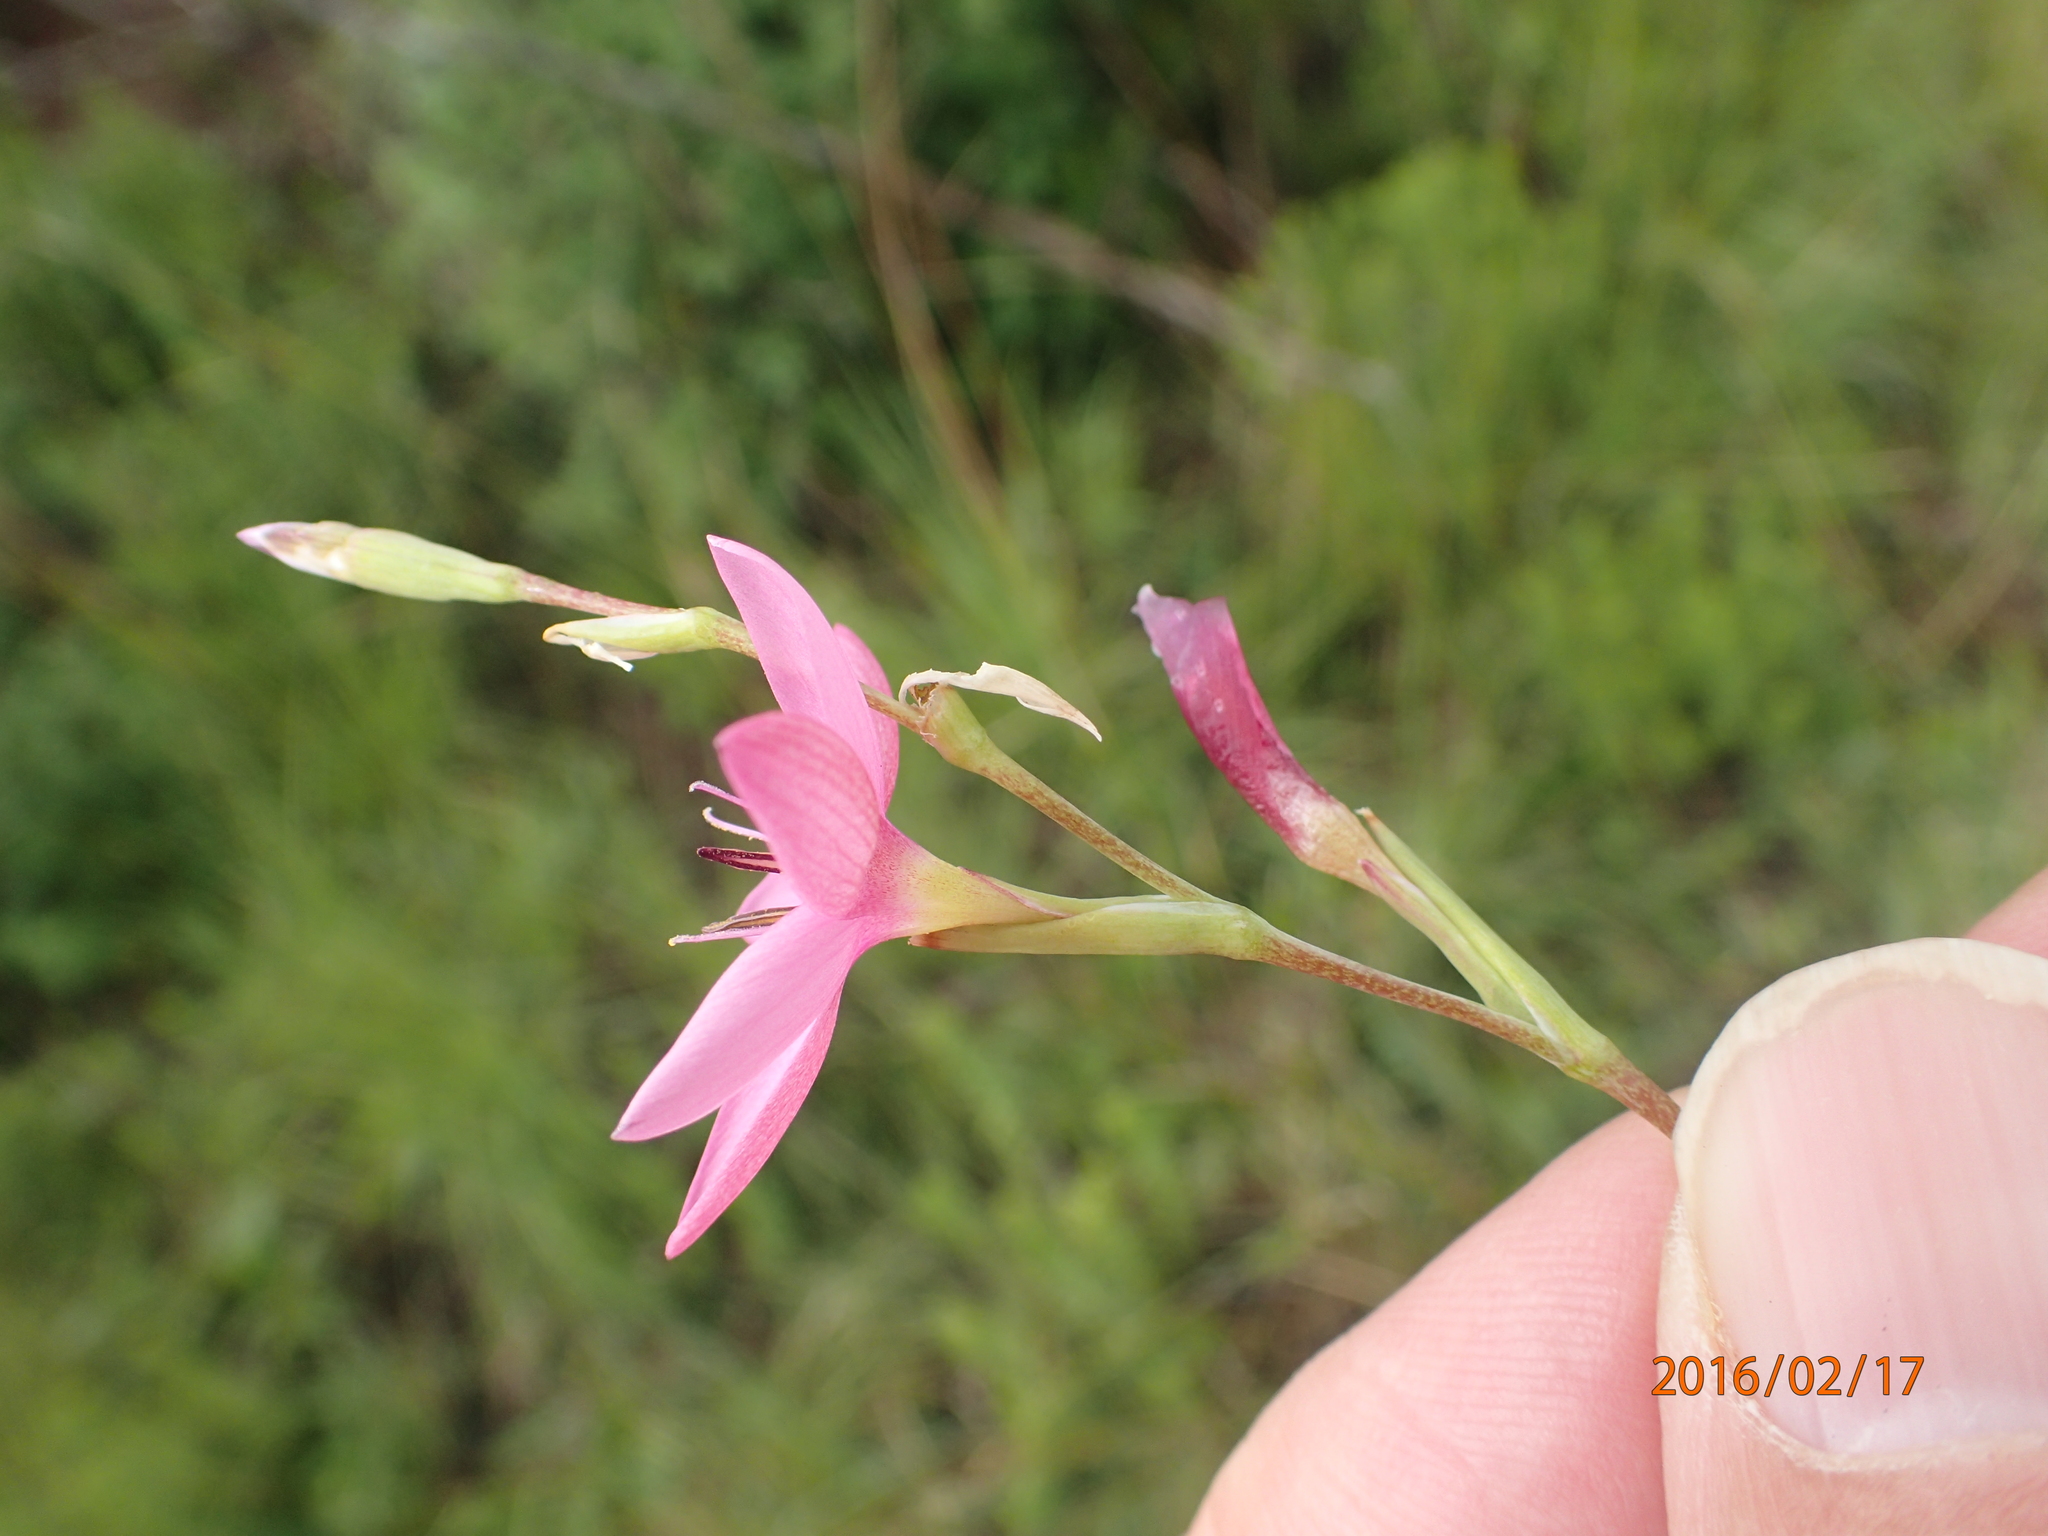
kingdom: Plantae
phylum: Tracheophyta
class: Liliopsida
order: Asparagales
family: Iridaceae
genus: Hesperantha
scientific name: Hesperantha baurii
